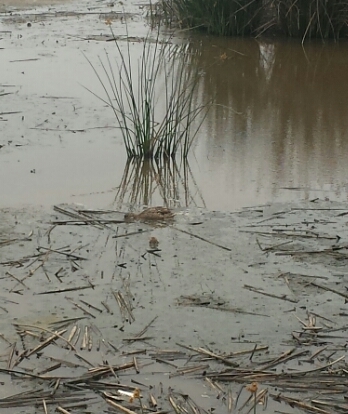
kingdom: Animalia
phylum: Chordata
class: Aves
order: Anseriformes
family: Anatidae
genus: Anas
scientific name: Anas platyrhynchos
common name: Mallard
